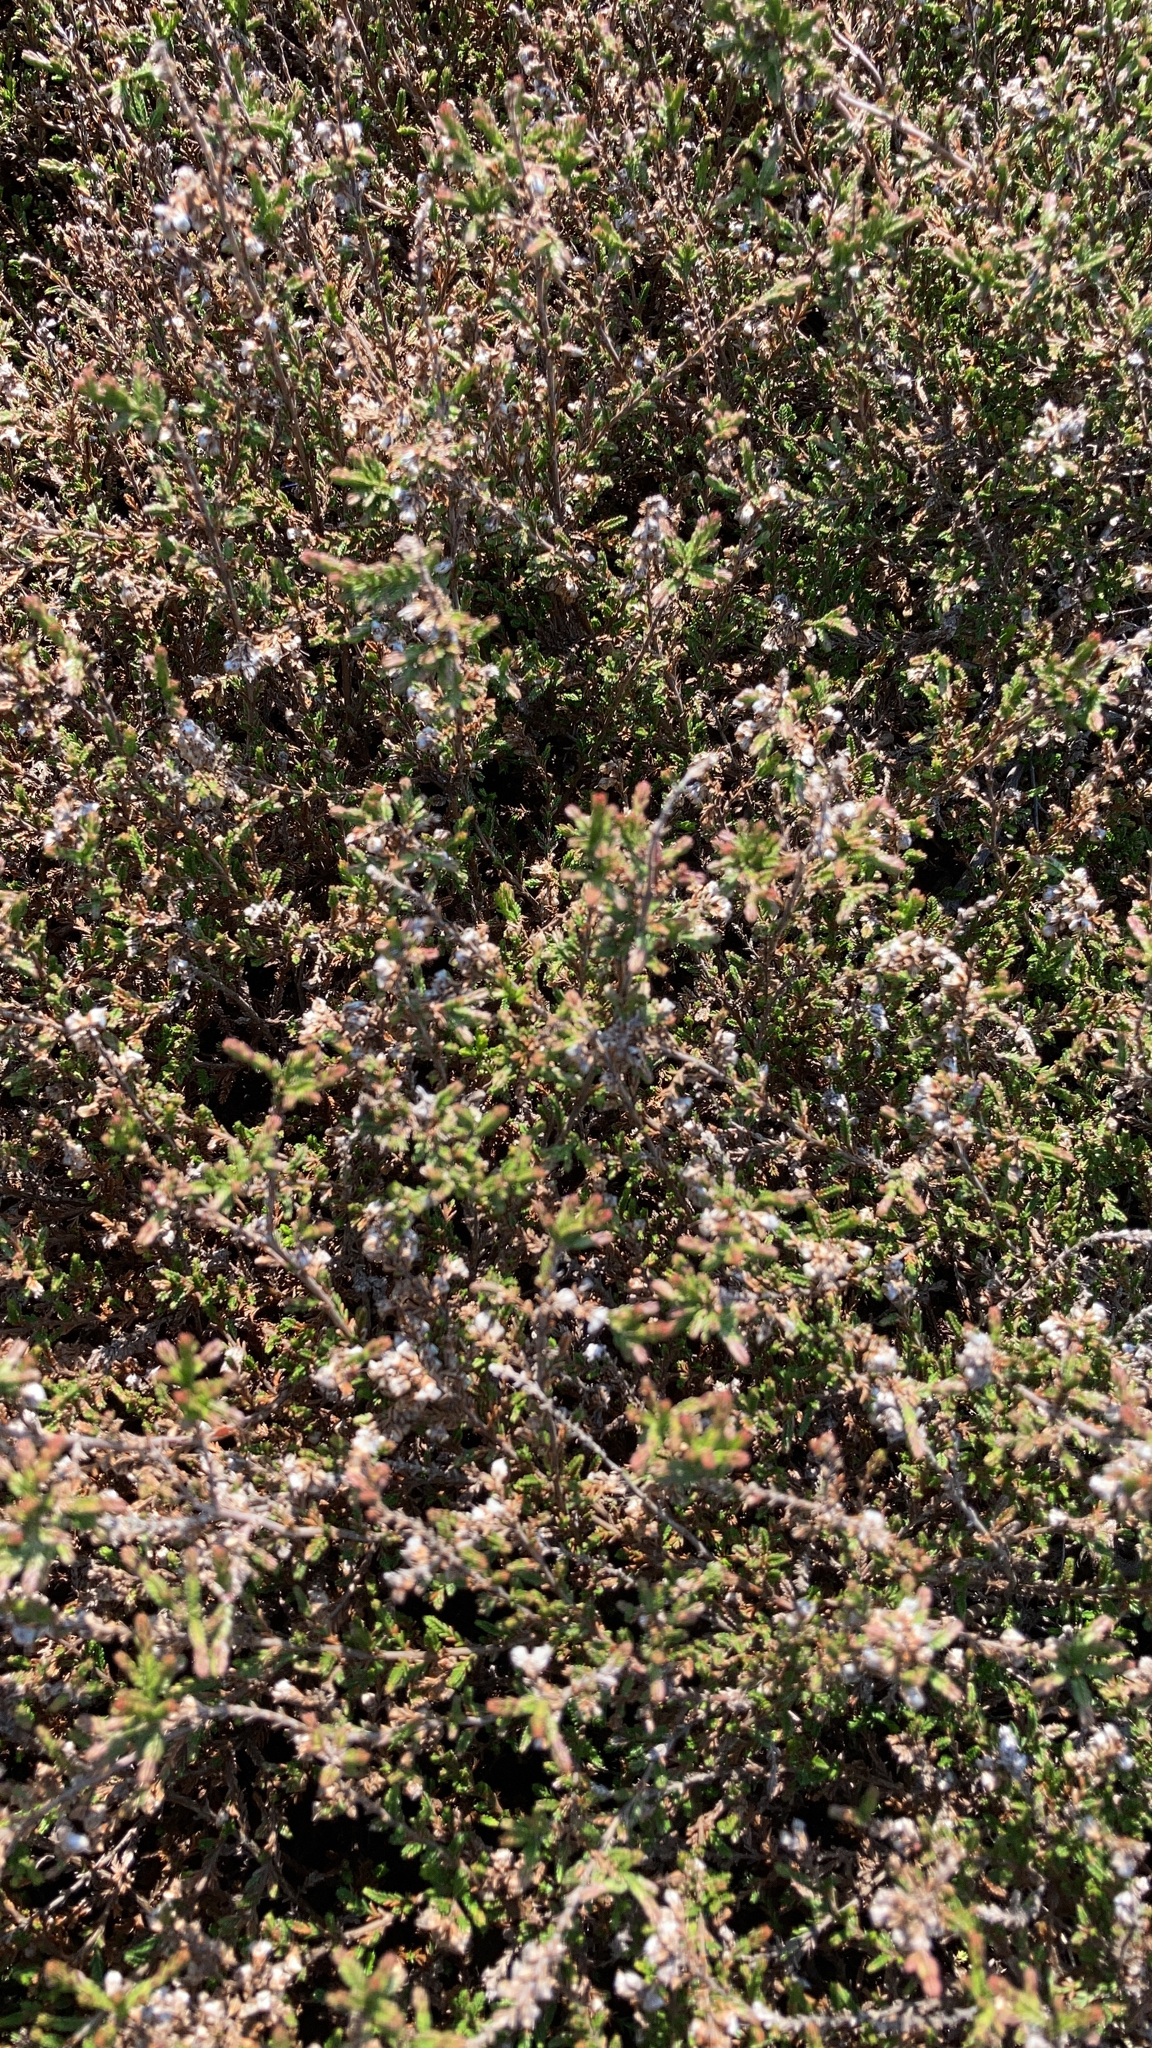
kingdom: Plantae
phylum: Tracheophyta
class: Magnoliopsida
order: Ericales
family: Ericaceae
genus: Calluna
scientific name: Calluna vulgaris
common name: Heather
